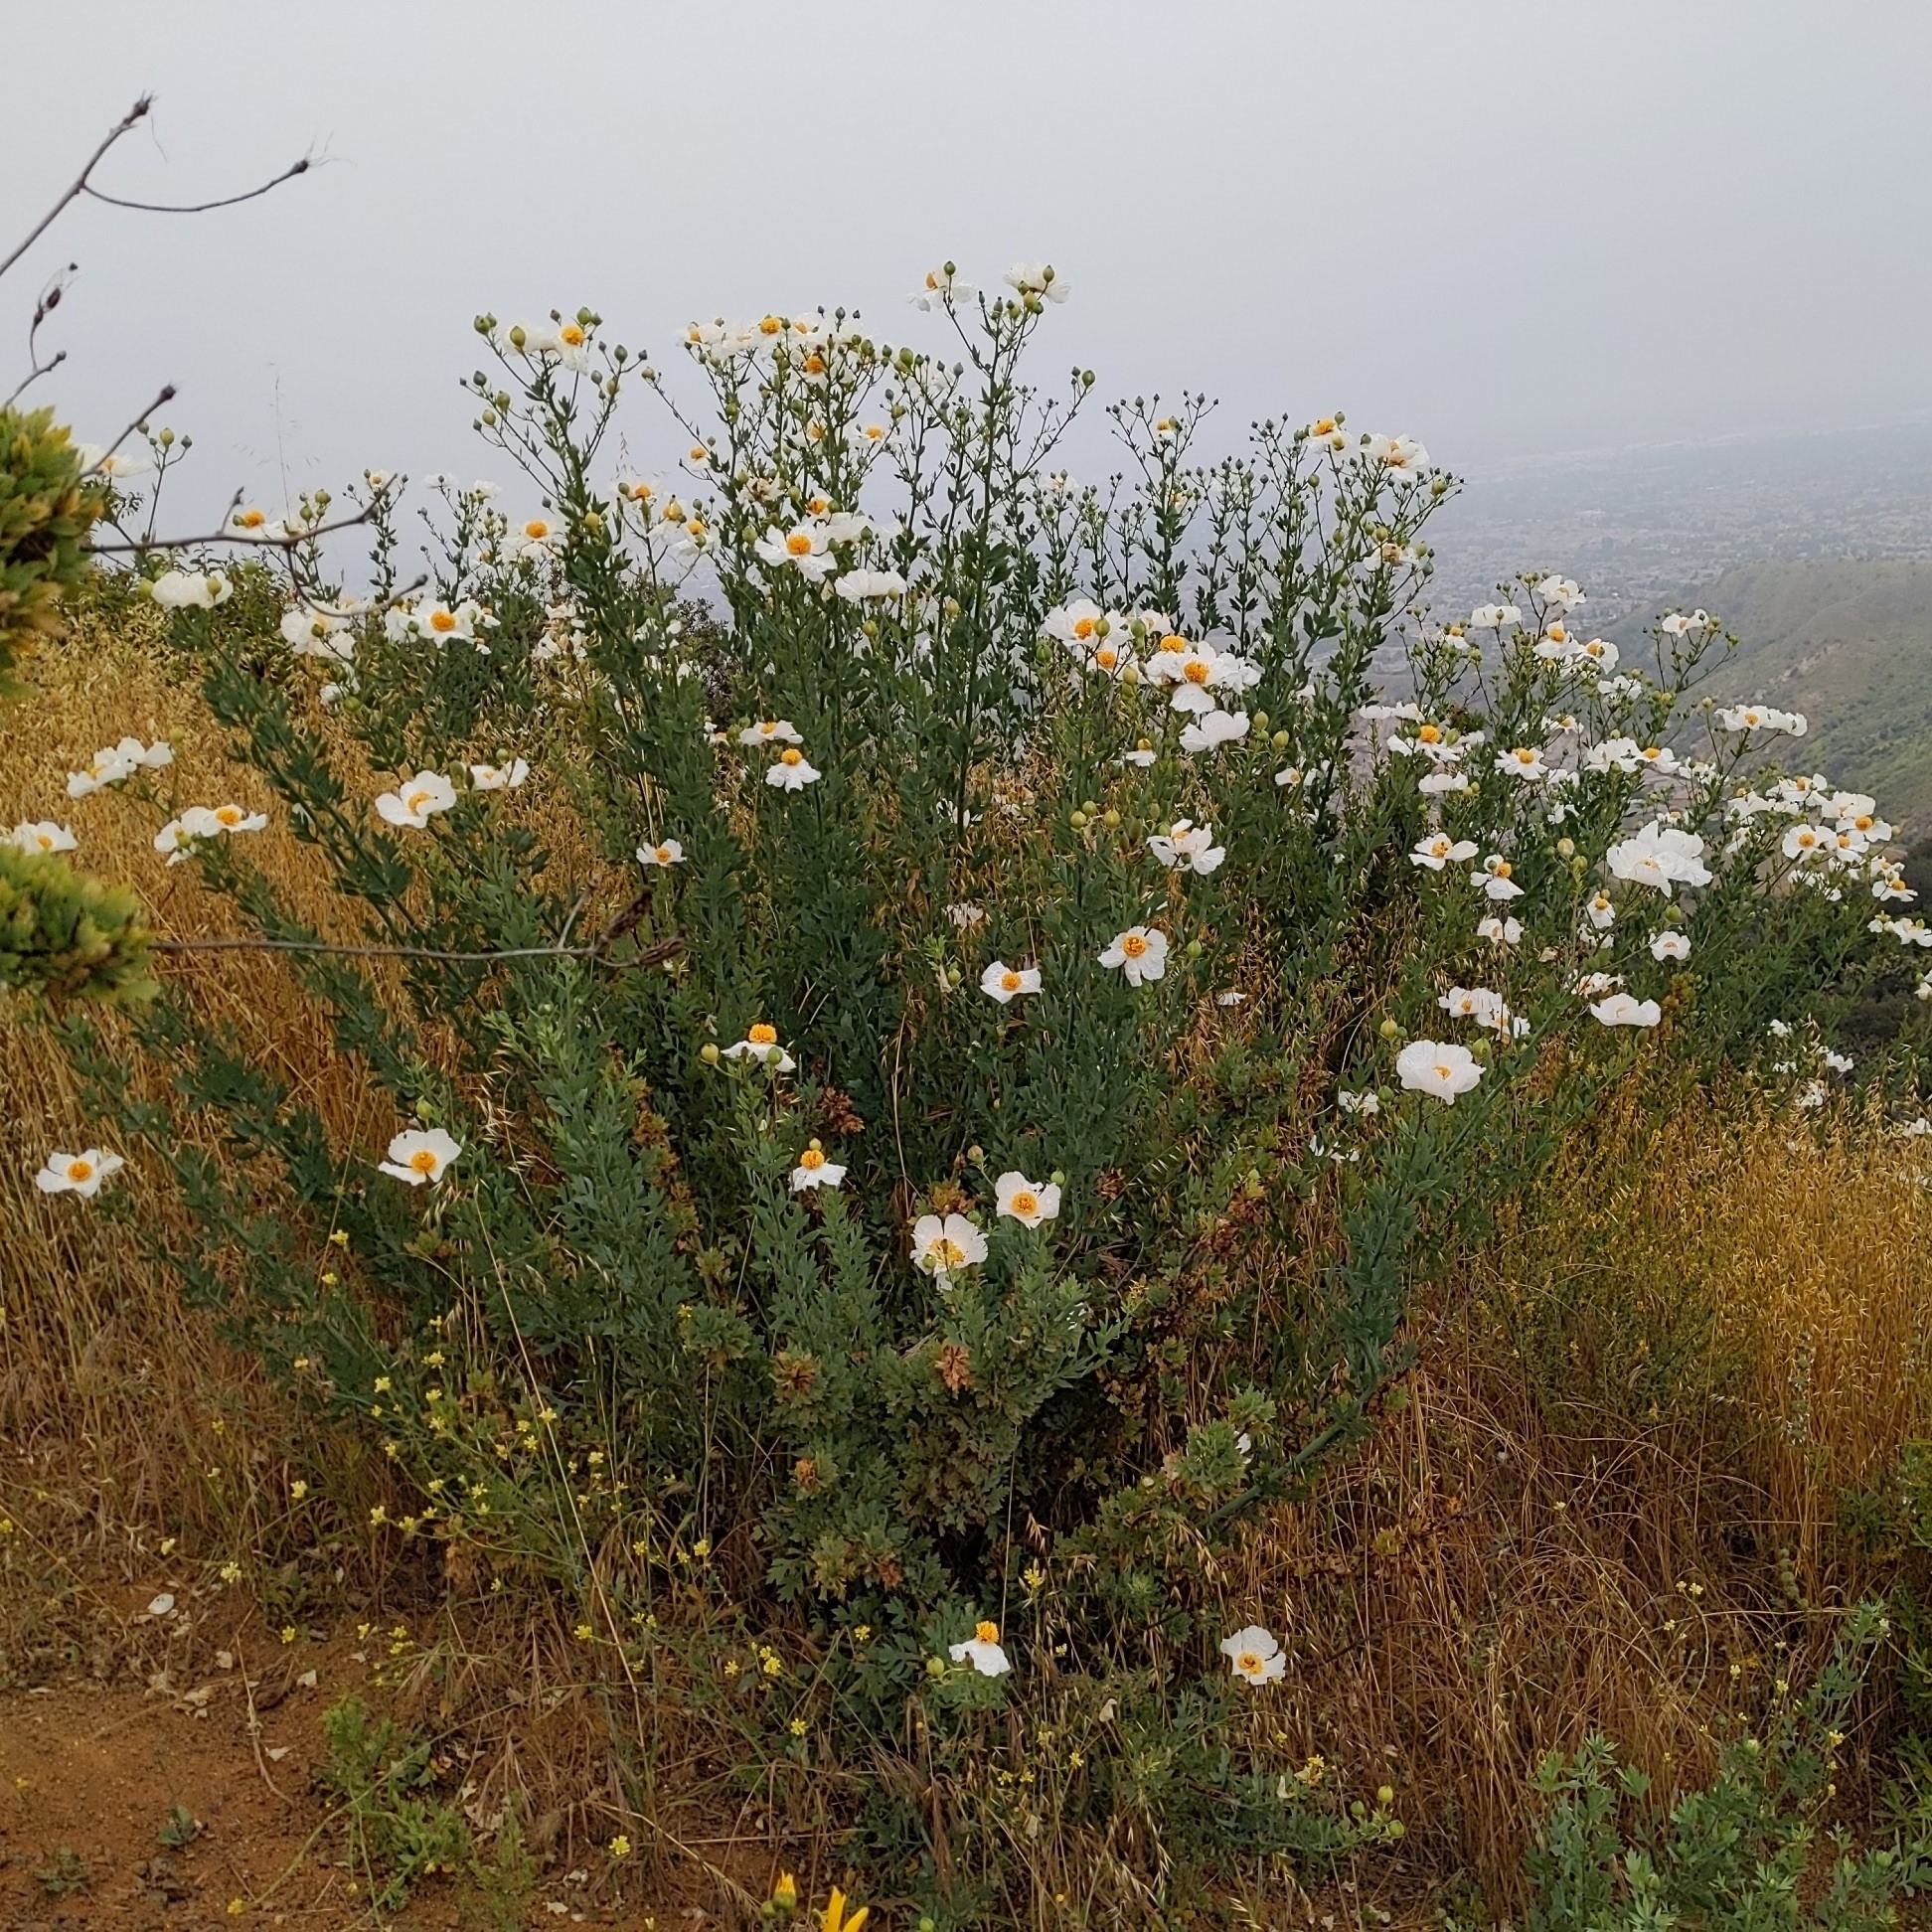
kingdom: Plantae
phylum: Tracheophyta
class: Magnoliopsida
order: Ranunculales
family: Papaveraceae
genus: Romneya
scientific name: Romneya coulteri
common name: California tree-poppy
